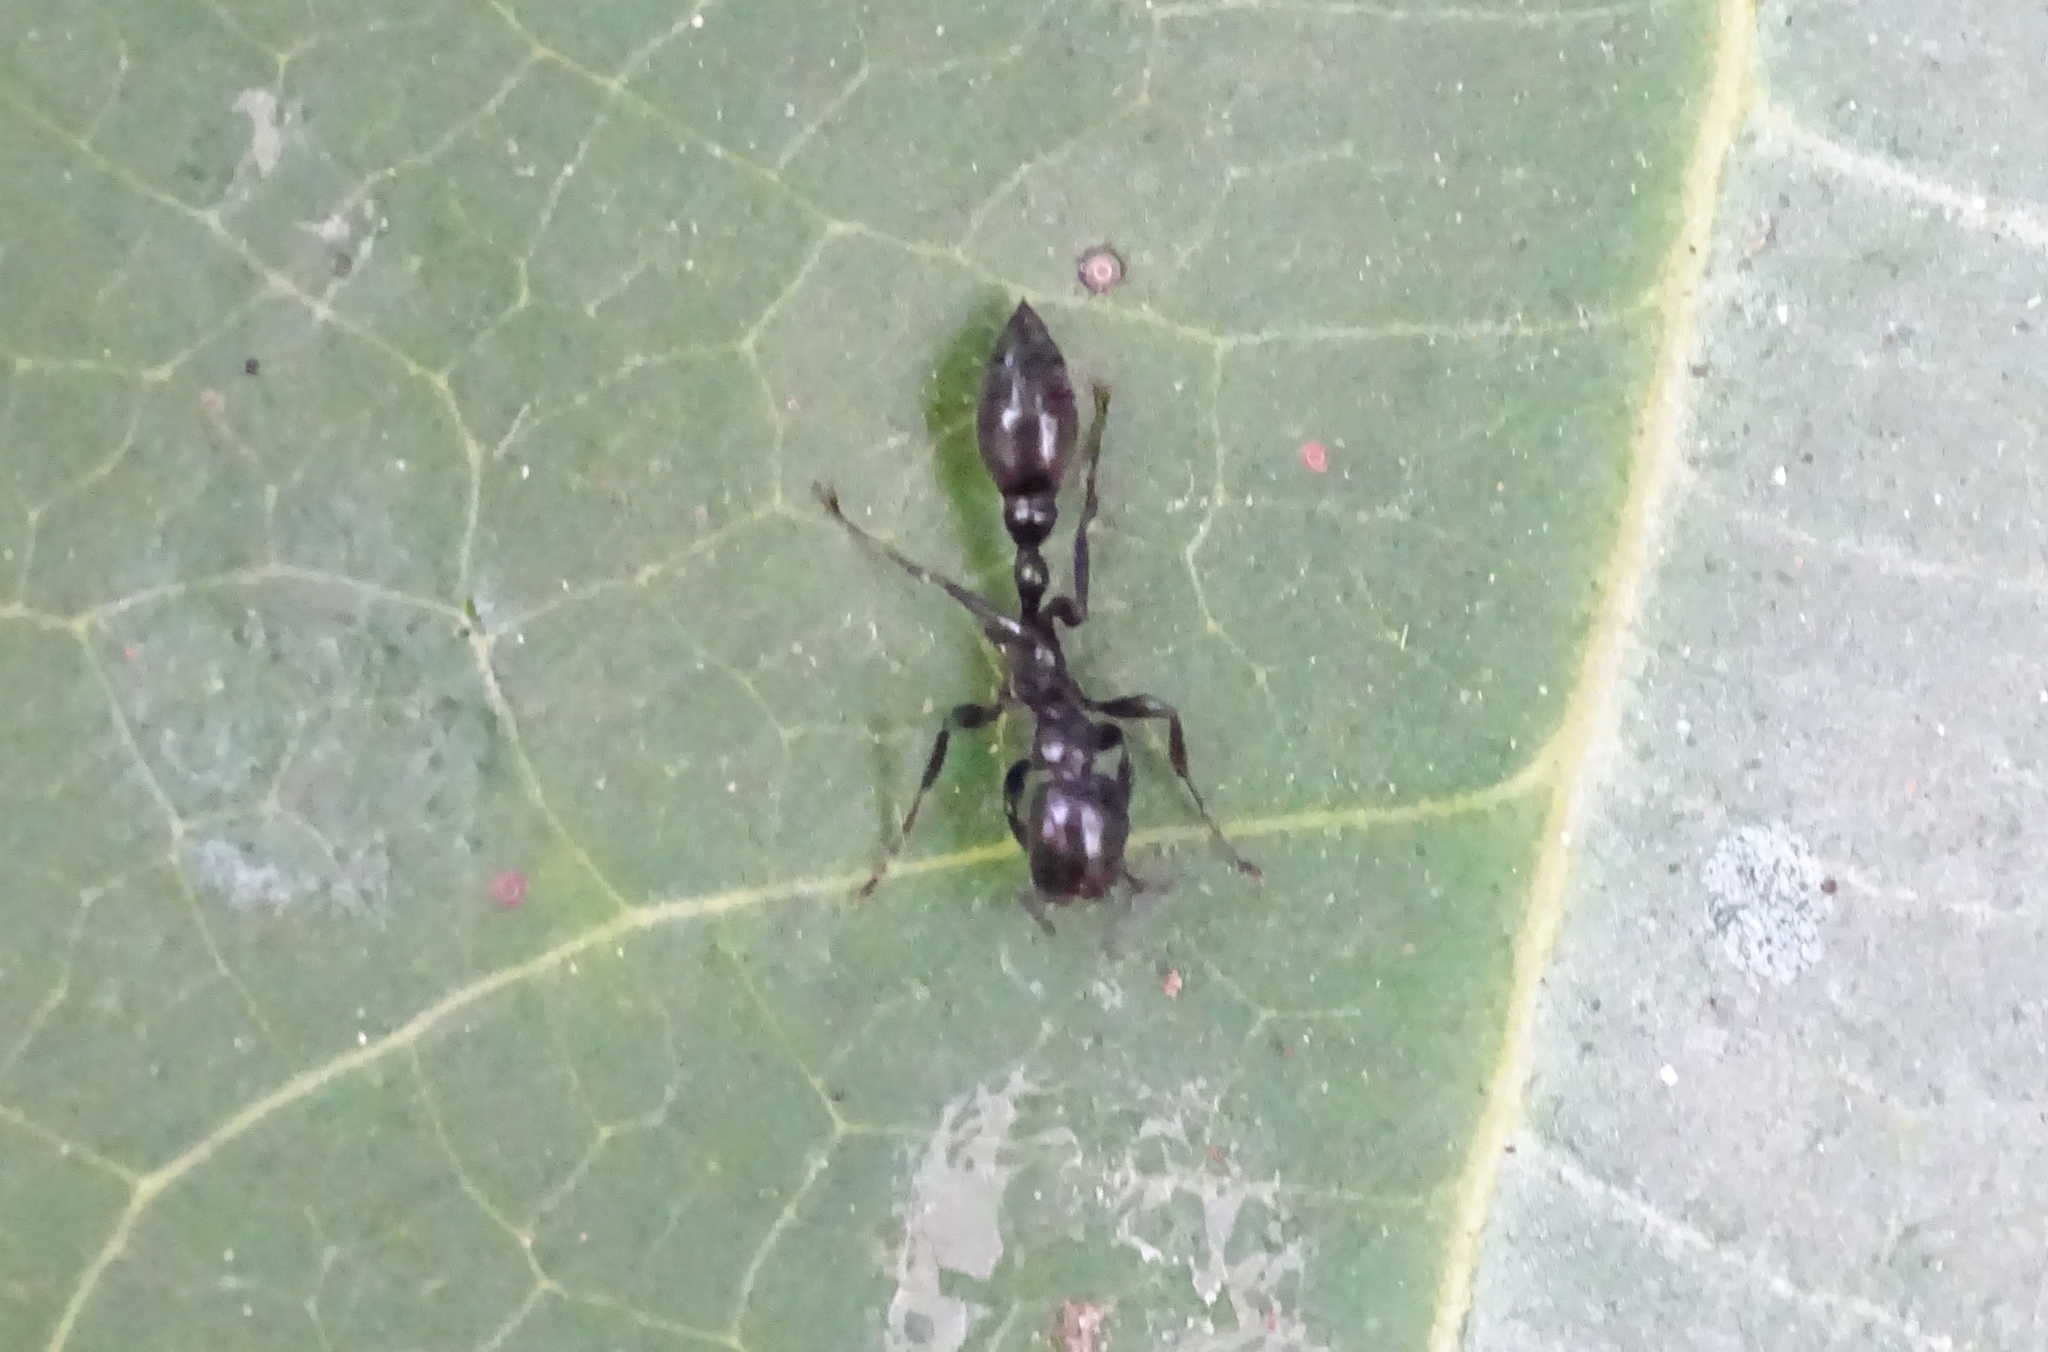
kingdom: Animalia
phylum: Arthropoda
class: Insecta
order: Hymenoptera
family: Formicidae
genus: Tetraponera
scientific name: Tetraponera nigra
